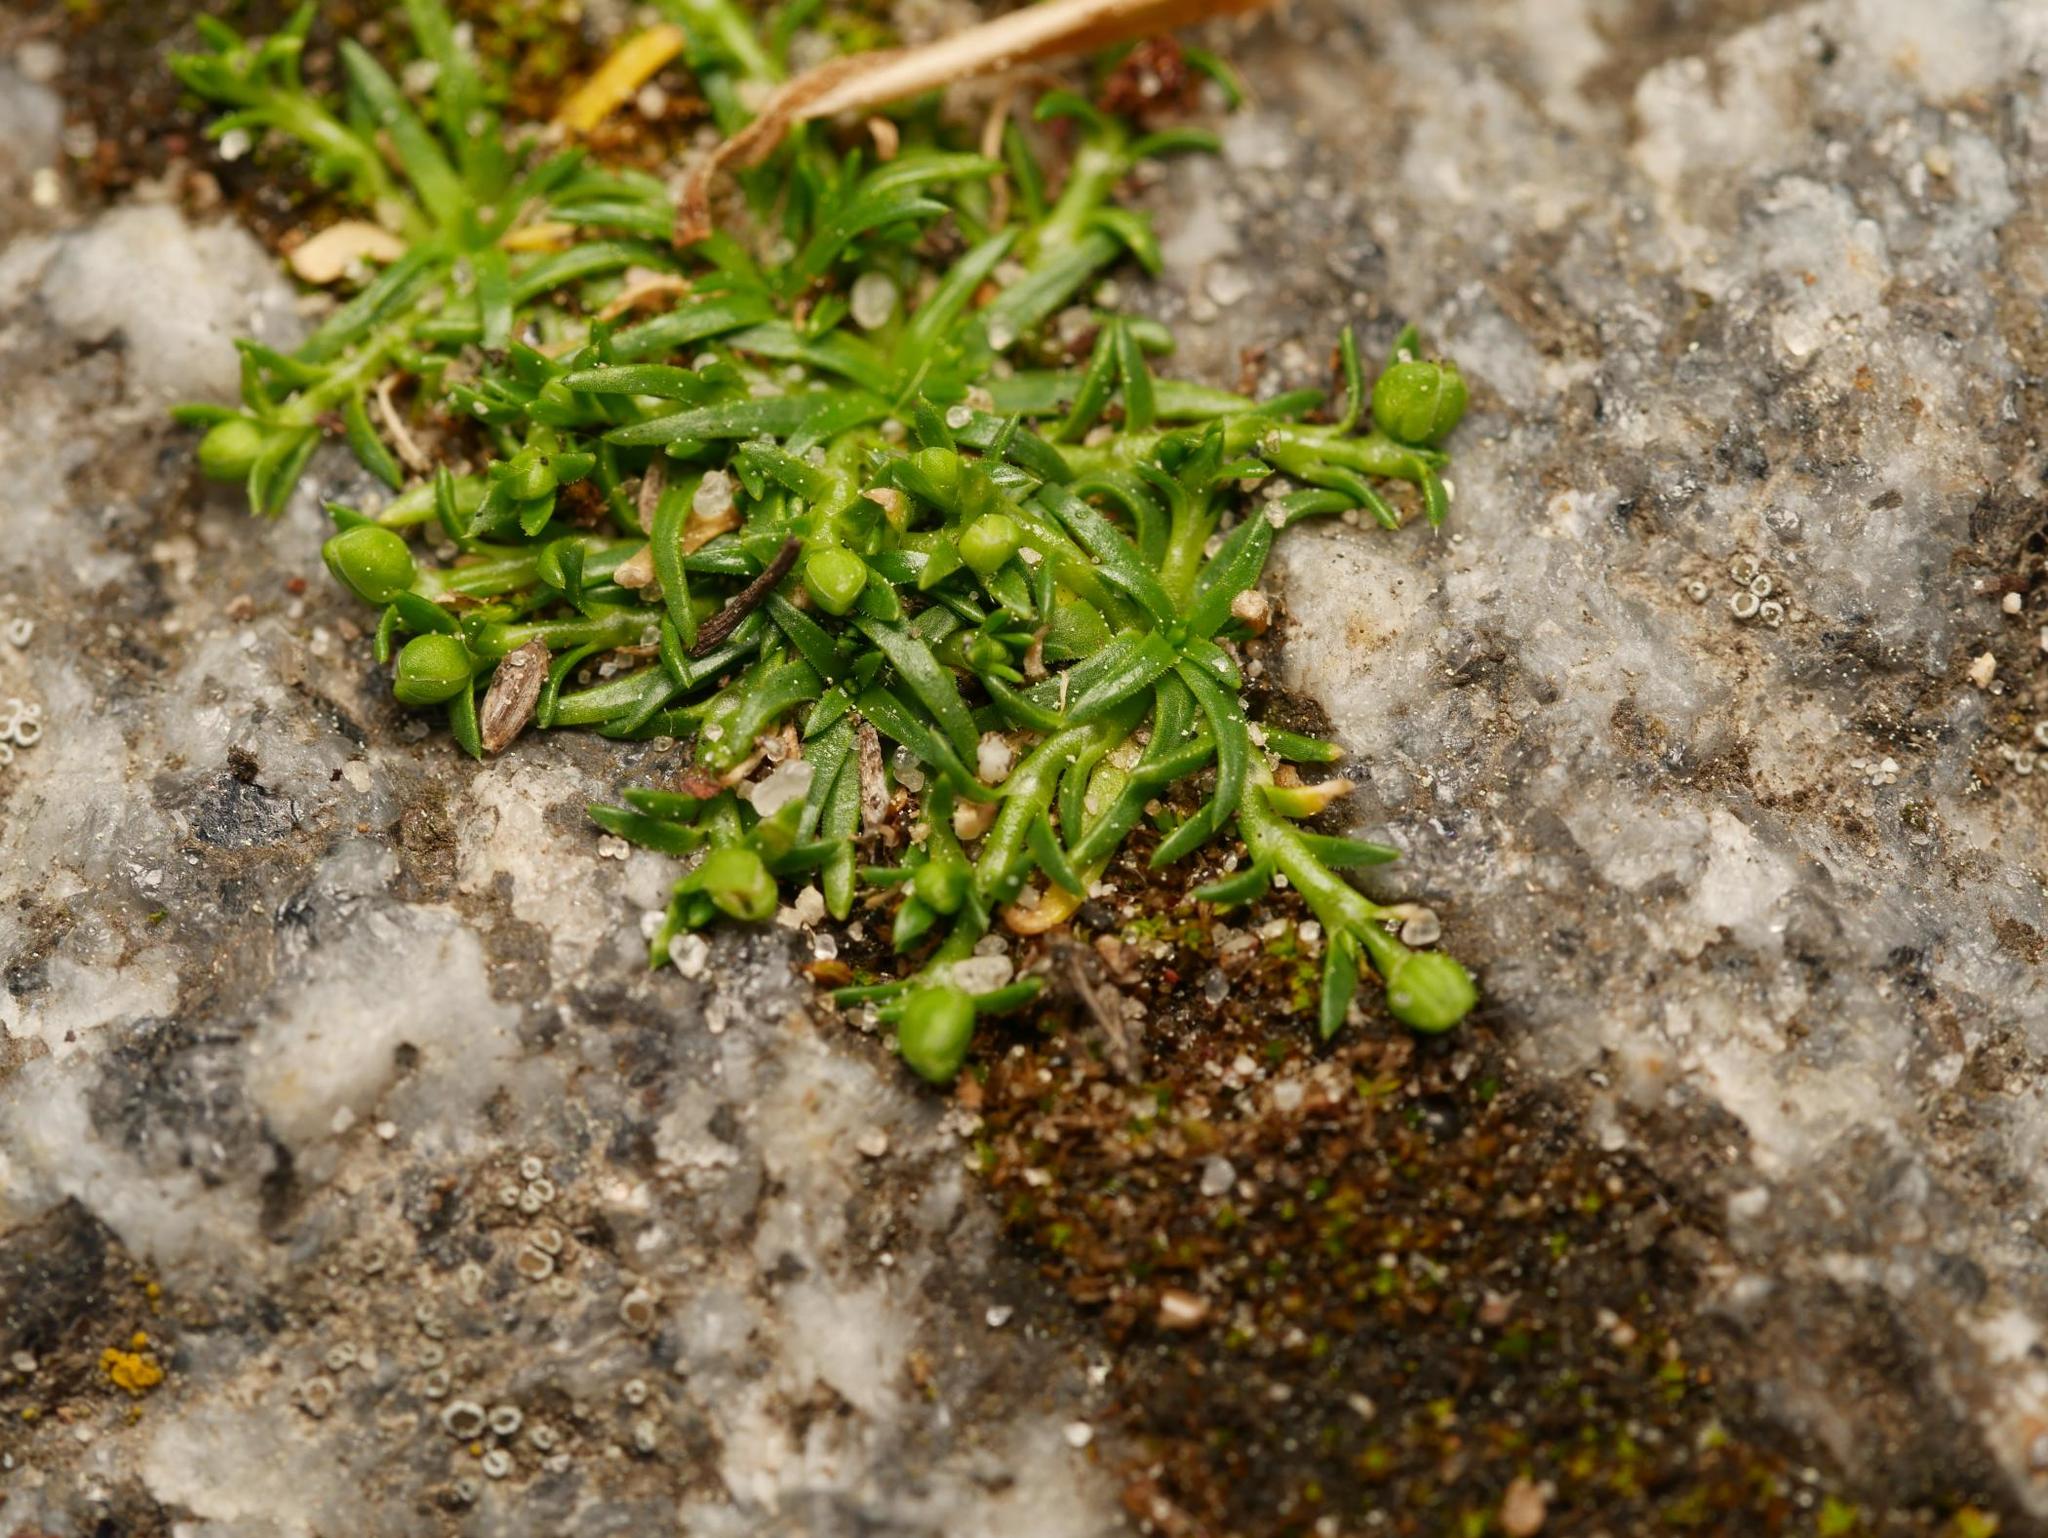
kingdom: Plantae
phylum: Tracheophyta
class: Magnoliopsida
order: Caryophyllales
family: Caryophyllaceae
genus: Sagina
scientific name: Sagina procumbens
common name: Procumbent pearlwort
